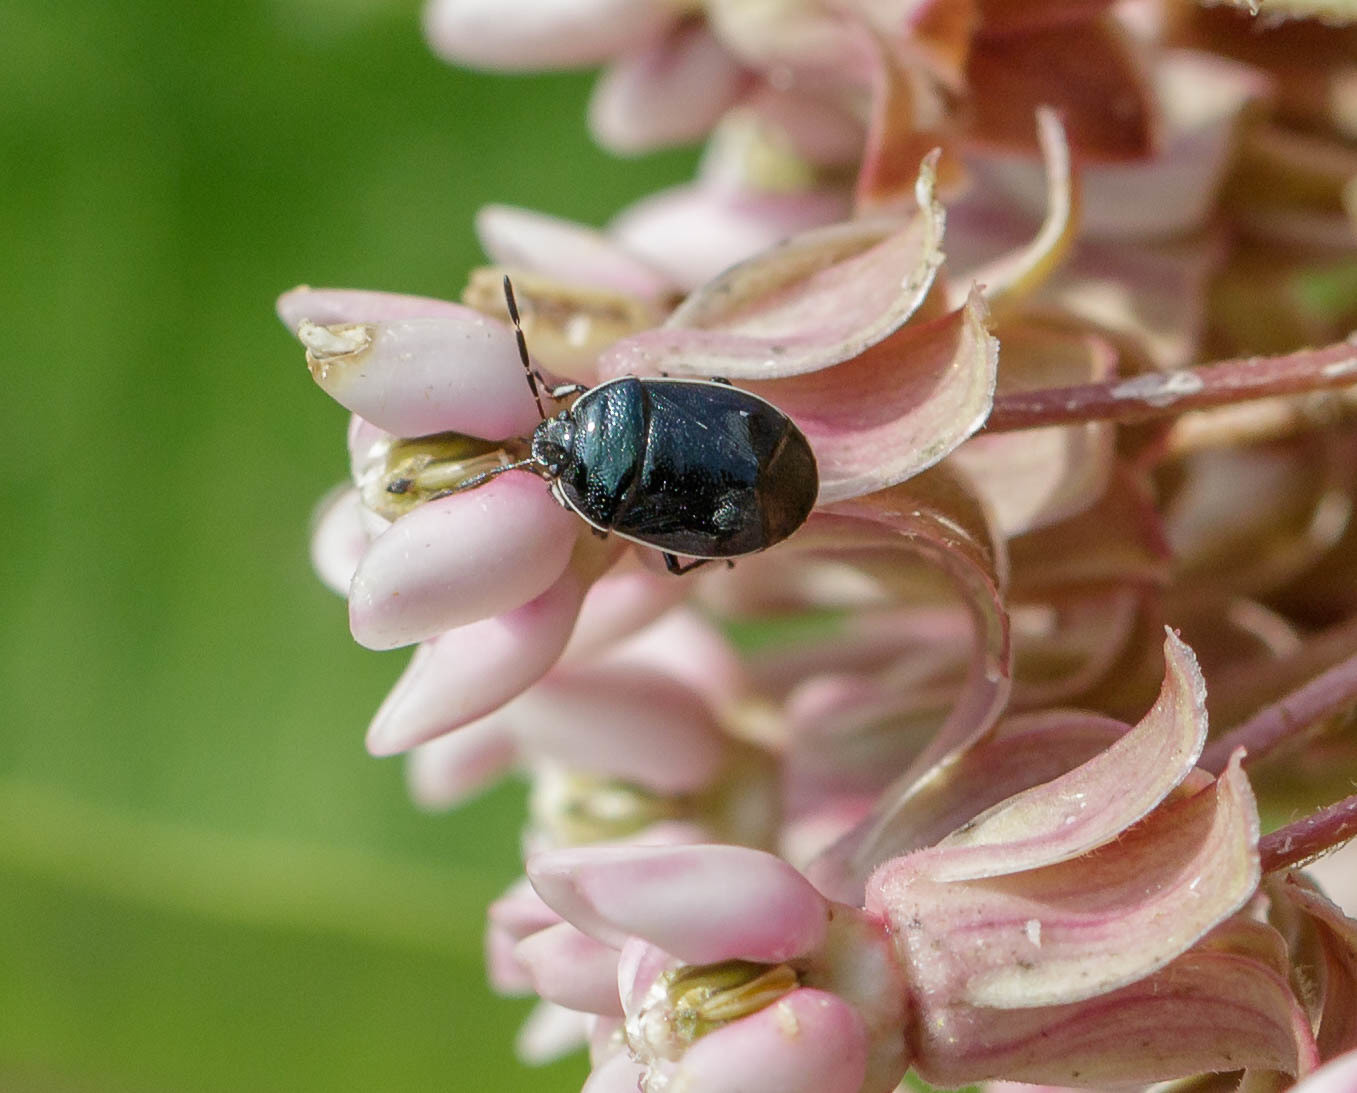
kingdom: Animalia
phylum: Arthropoda
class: Insecta
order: Hemiptera
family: Cydnidae
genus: Sehirus
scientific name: Sehirus cinctus
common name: White-margined burrower bug
